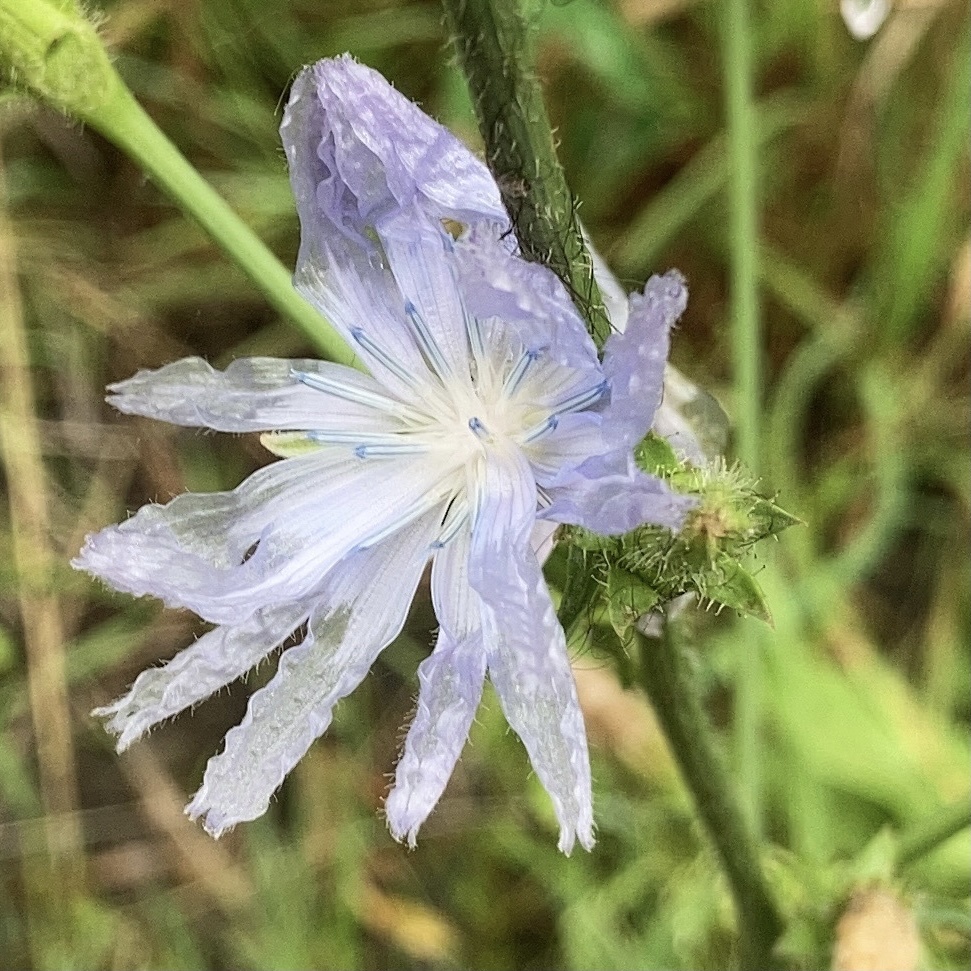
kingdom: Plantae
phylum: Tracheophyta
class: Magnoliopsida
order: Asterales
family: Asteraceae
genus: Cichorium
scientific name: Cichorium intybus
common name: Chicory
